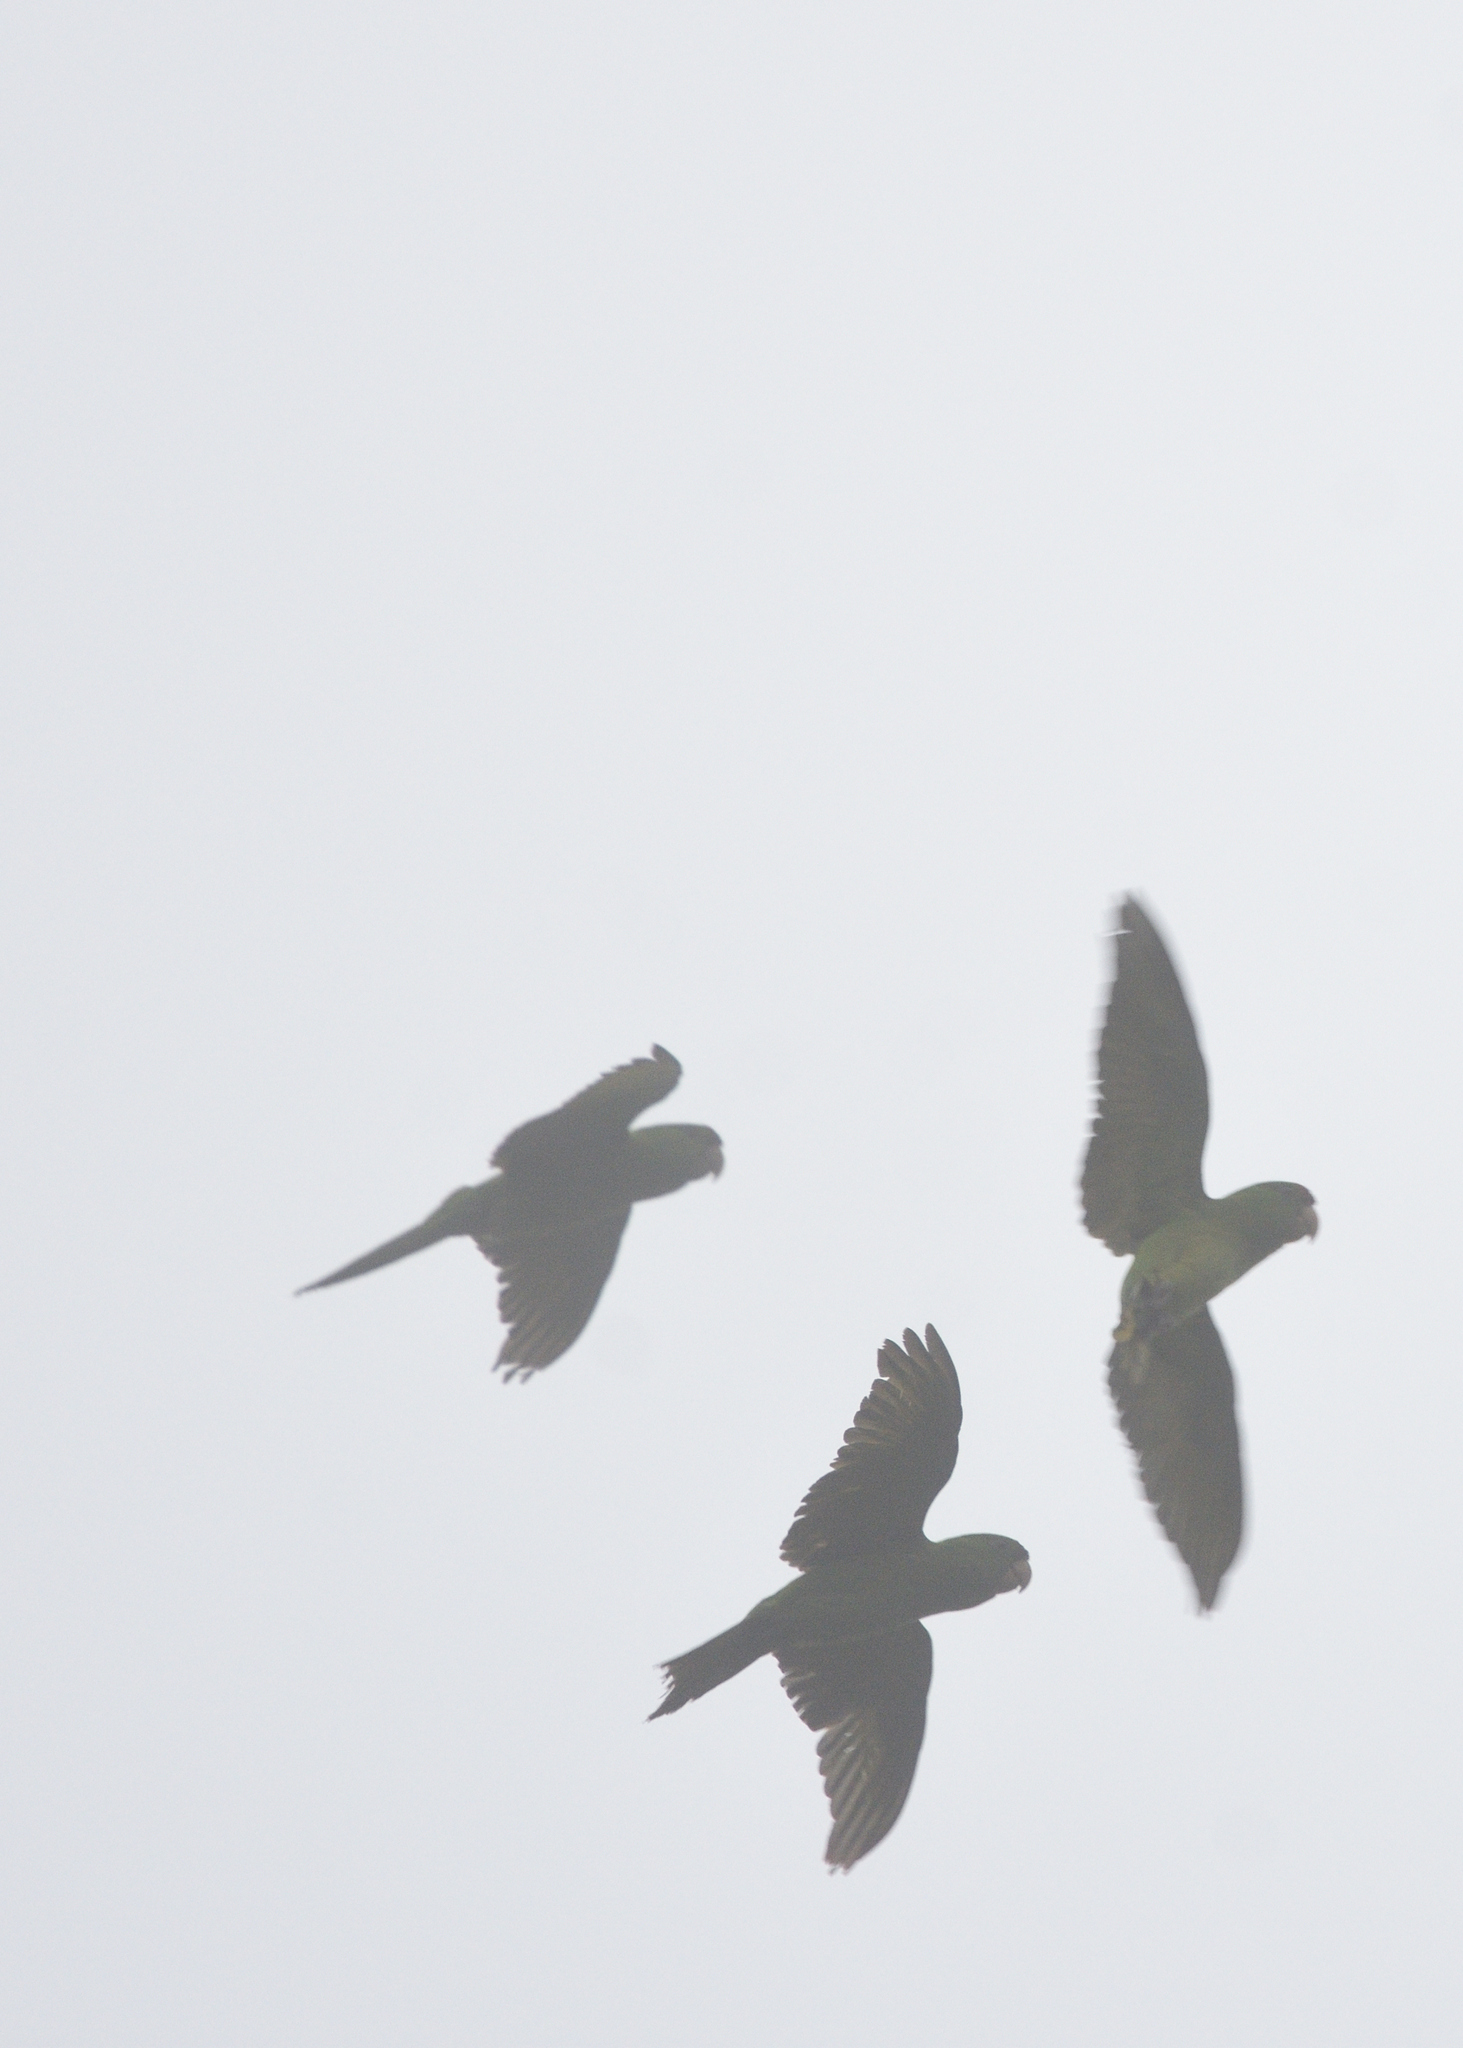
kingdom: Animalia
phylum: Chordata
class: Aves
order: Psittaciformes
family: Psittacidae
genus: Aratinga
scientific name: Aratinga wagleri
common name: Scarlet-fronted parakeet
